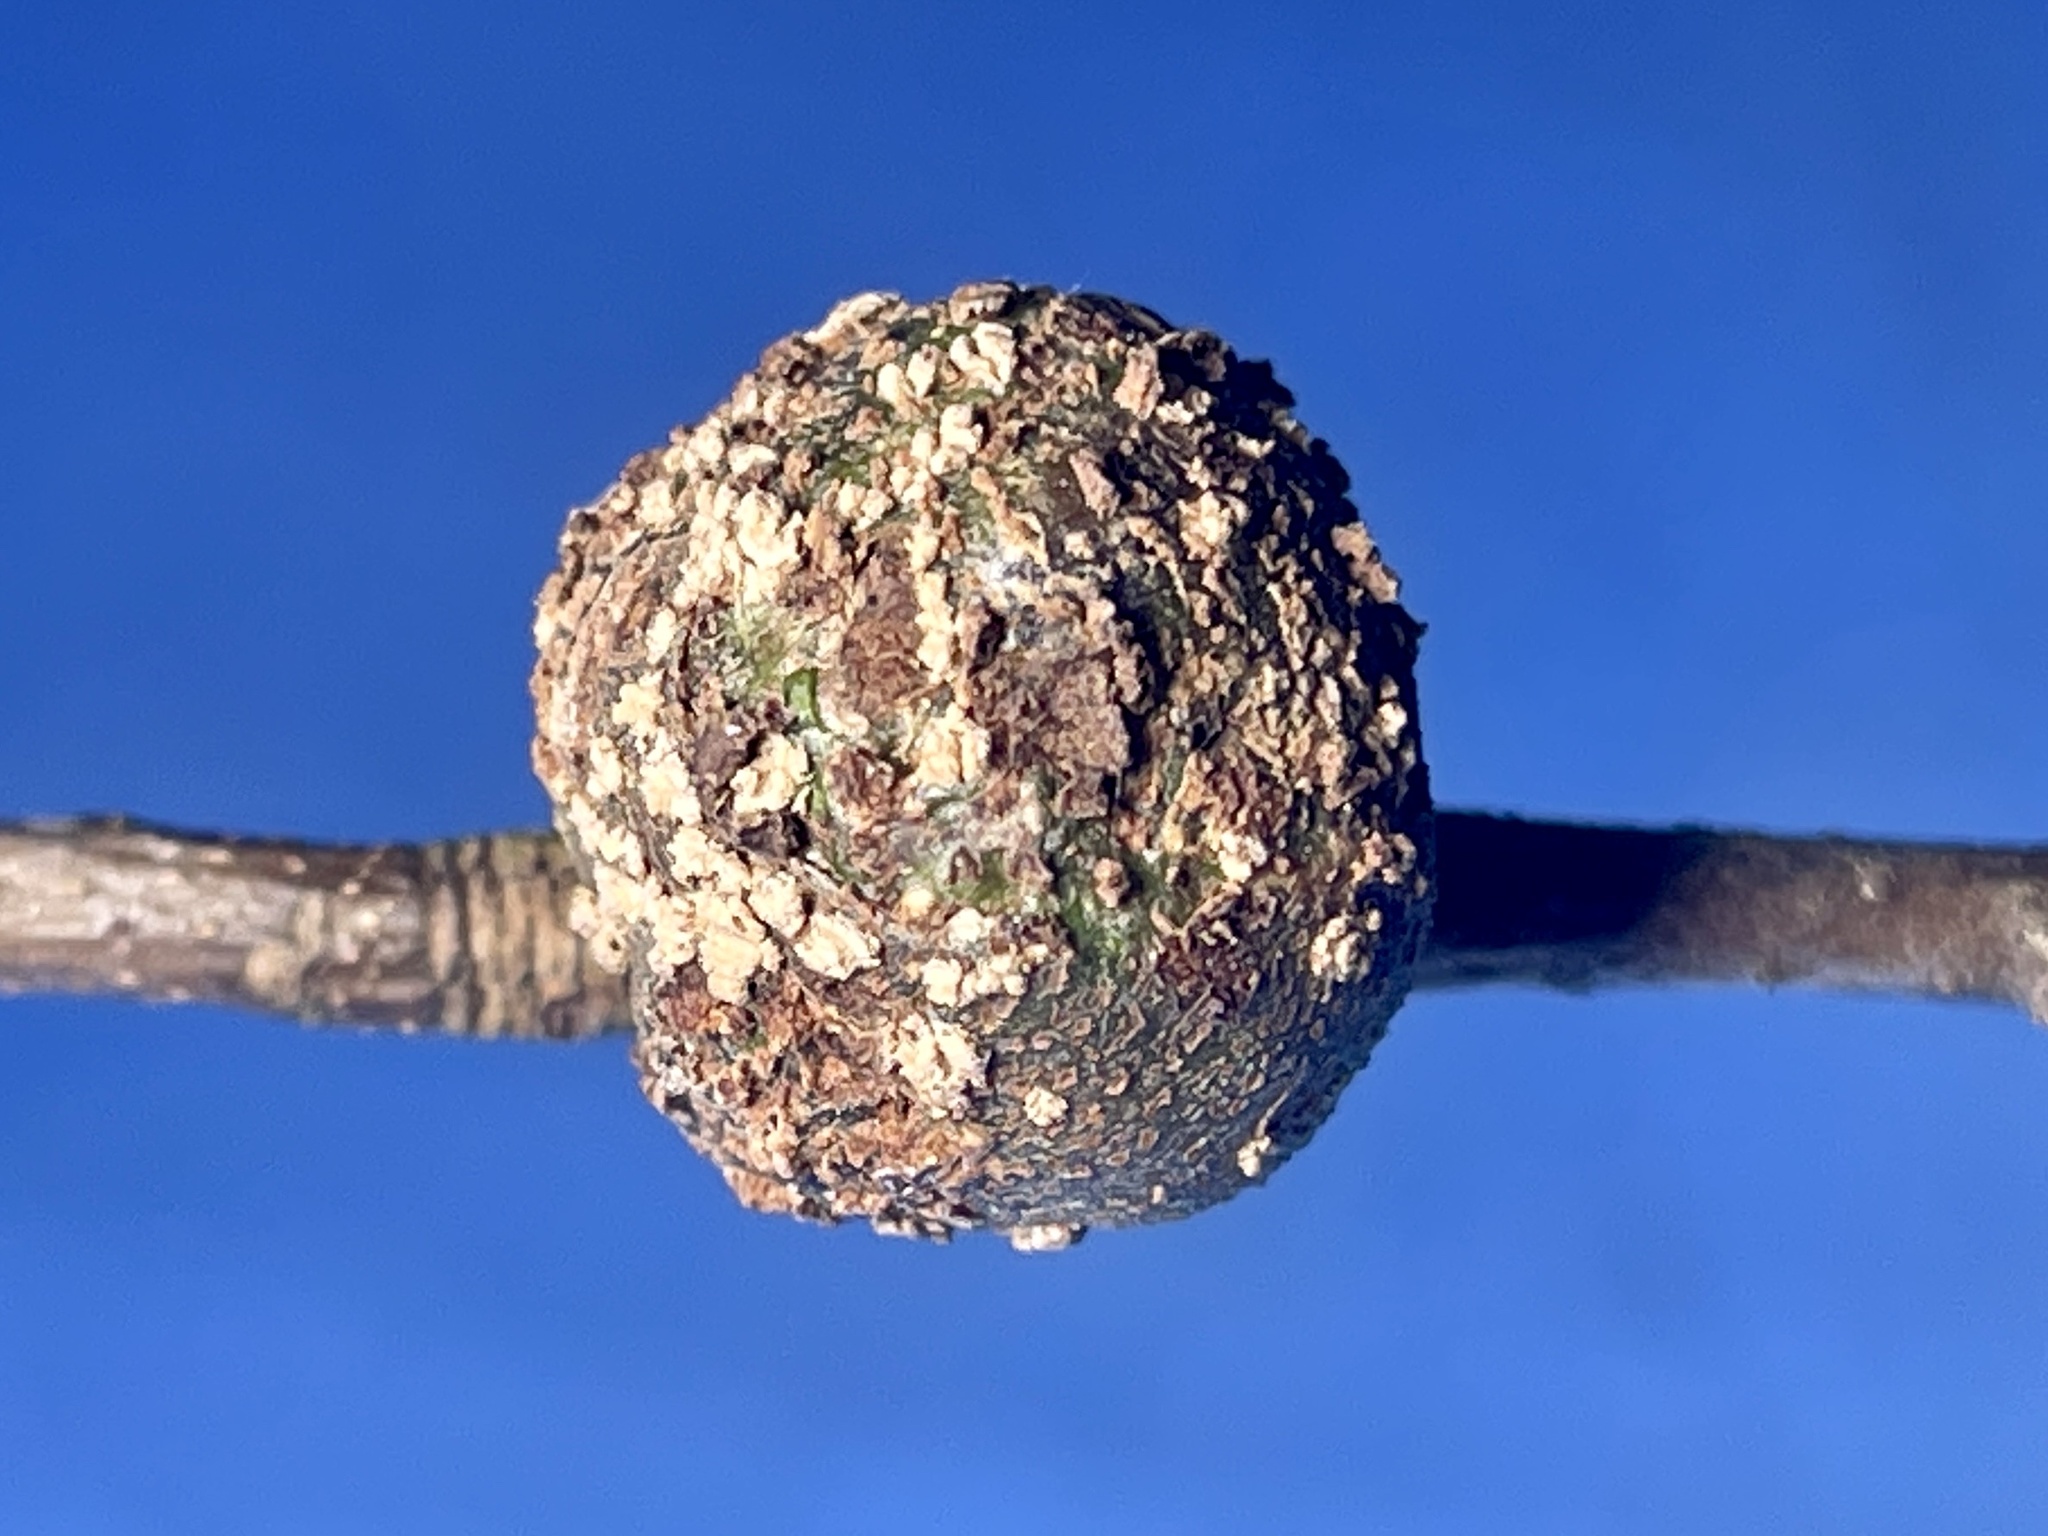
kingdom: Animalia
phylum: Arthropoda
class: Insecta
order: Hymenoptera
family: Cynipidae
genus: Synergus
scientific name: Synergus lignicola
